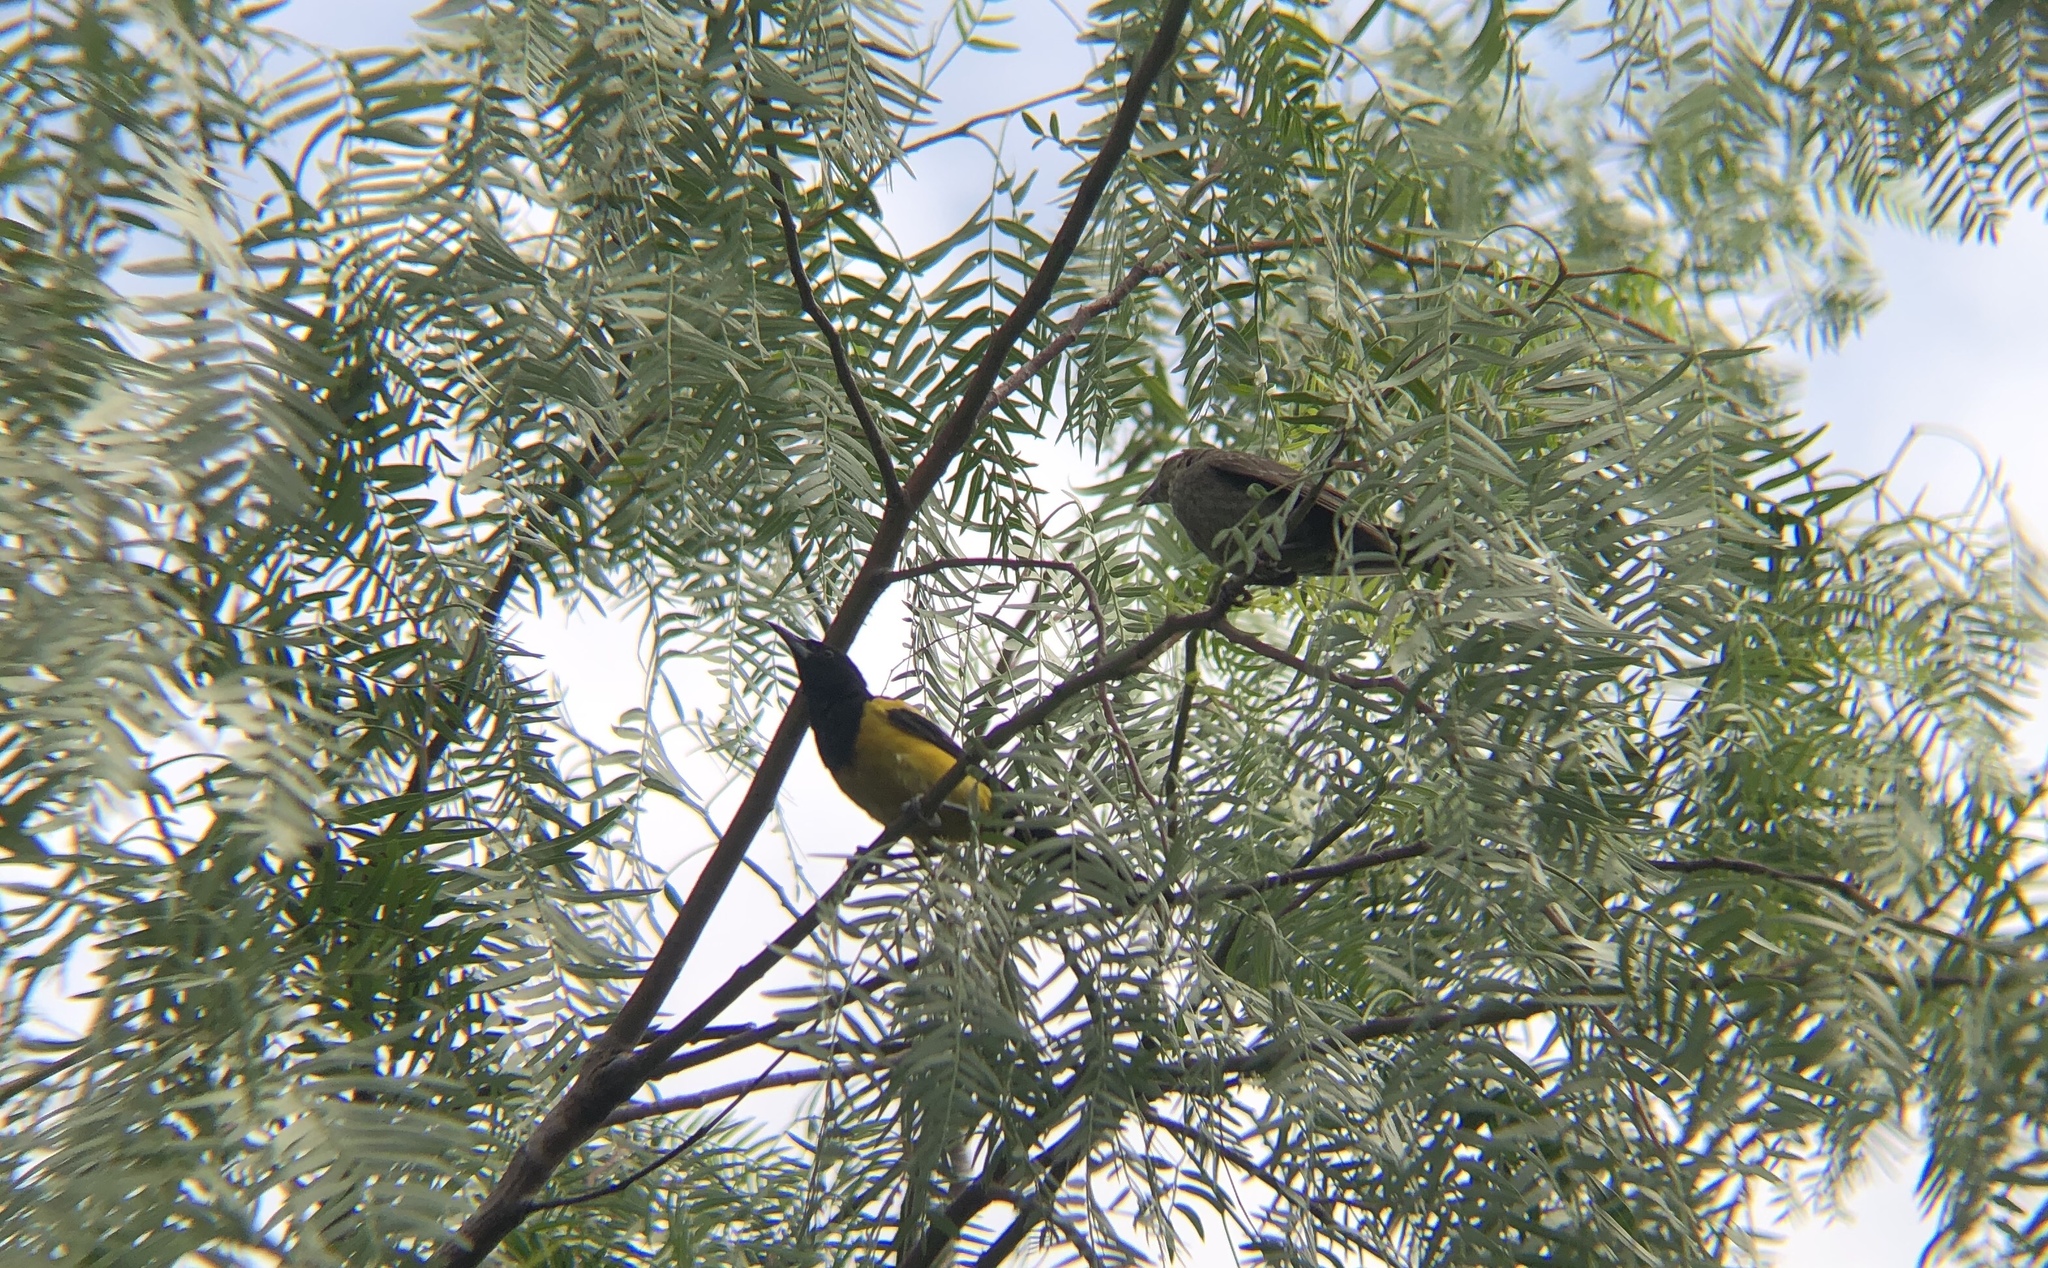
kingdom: Animalia
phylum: Chordata
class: Aves
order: Passeriformes
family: Icteridae
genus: Icterus
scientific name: Icterus wagleri
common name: Black-vented oriole
